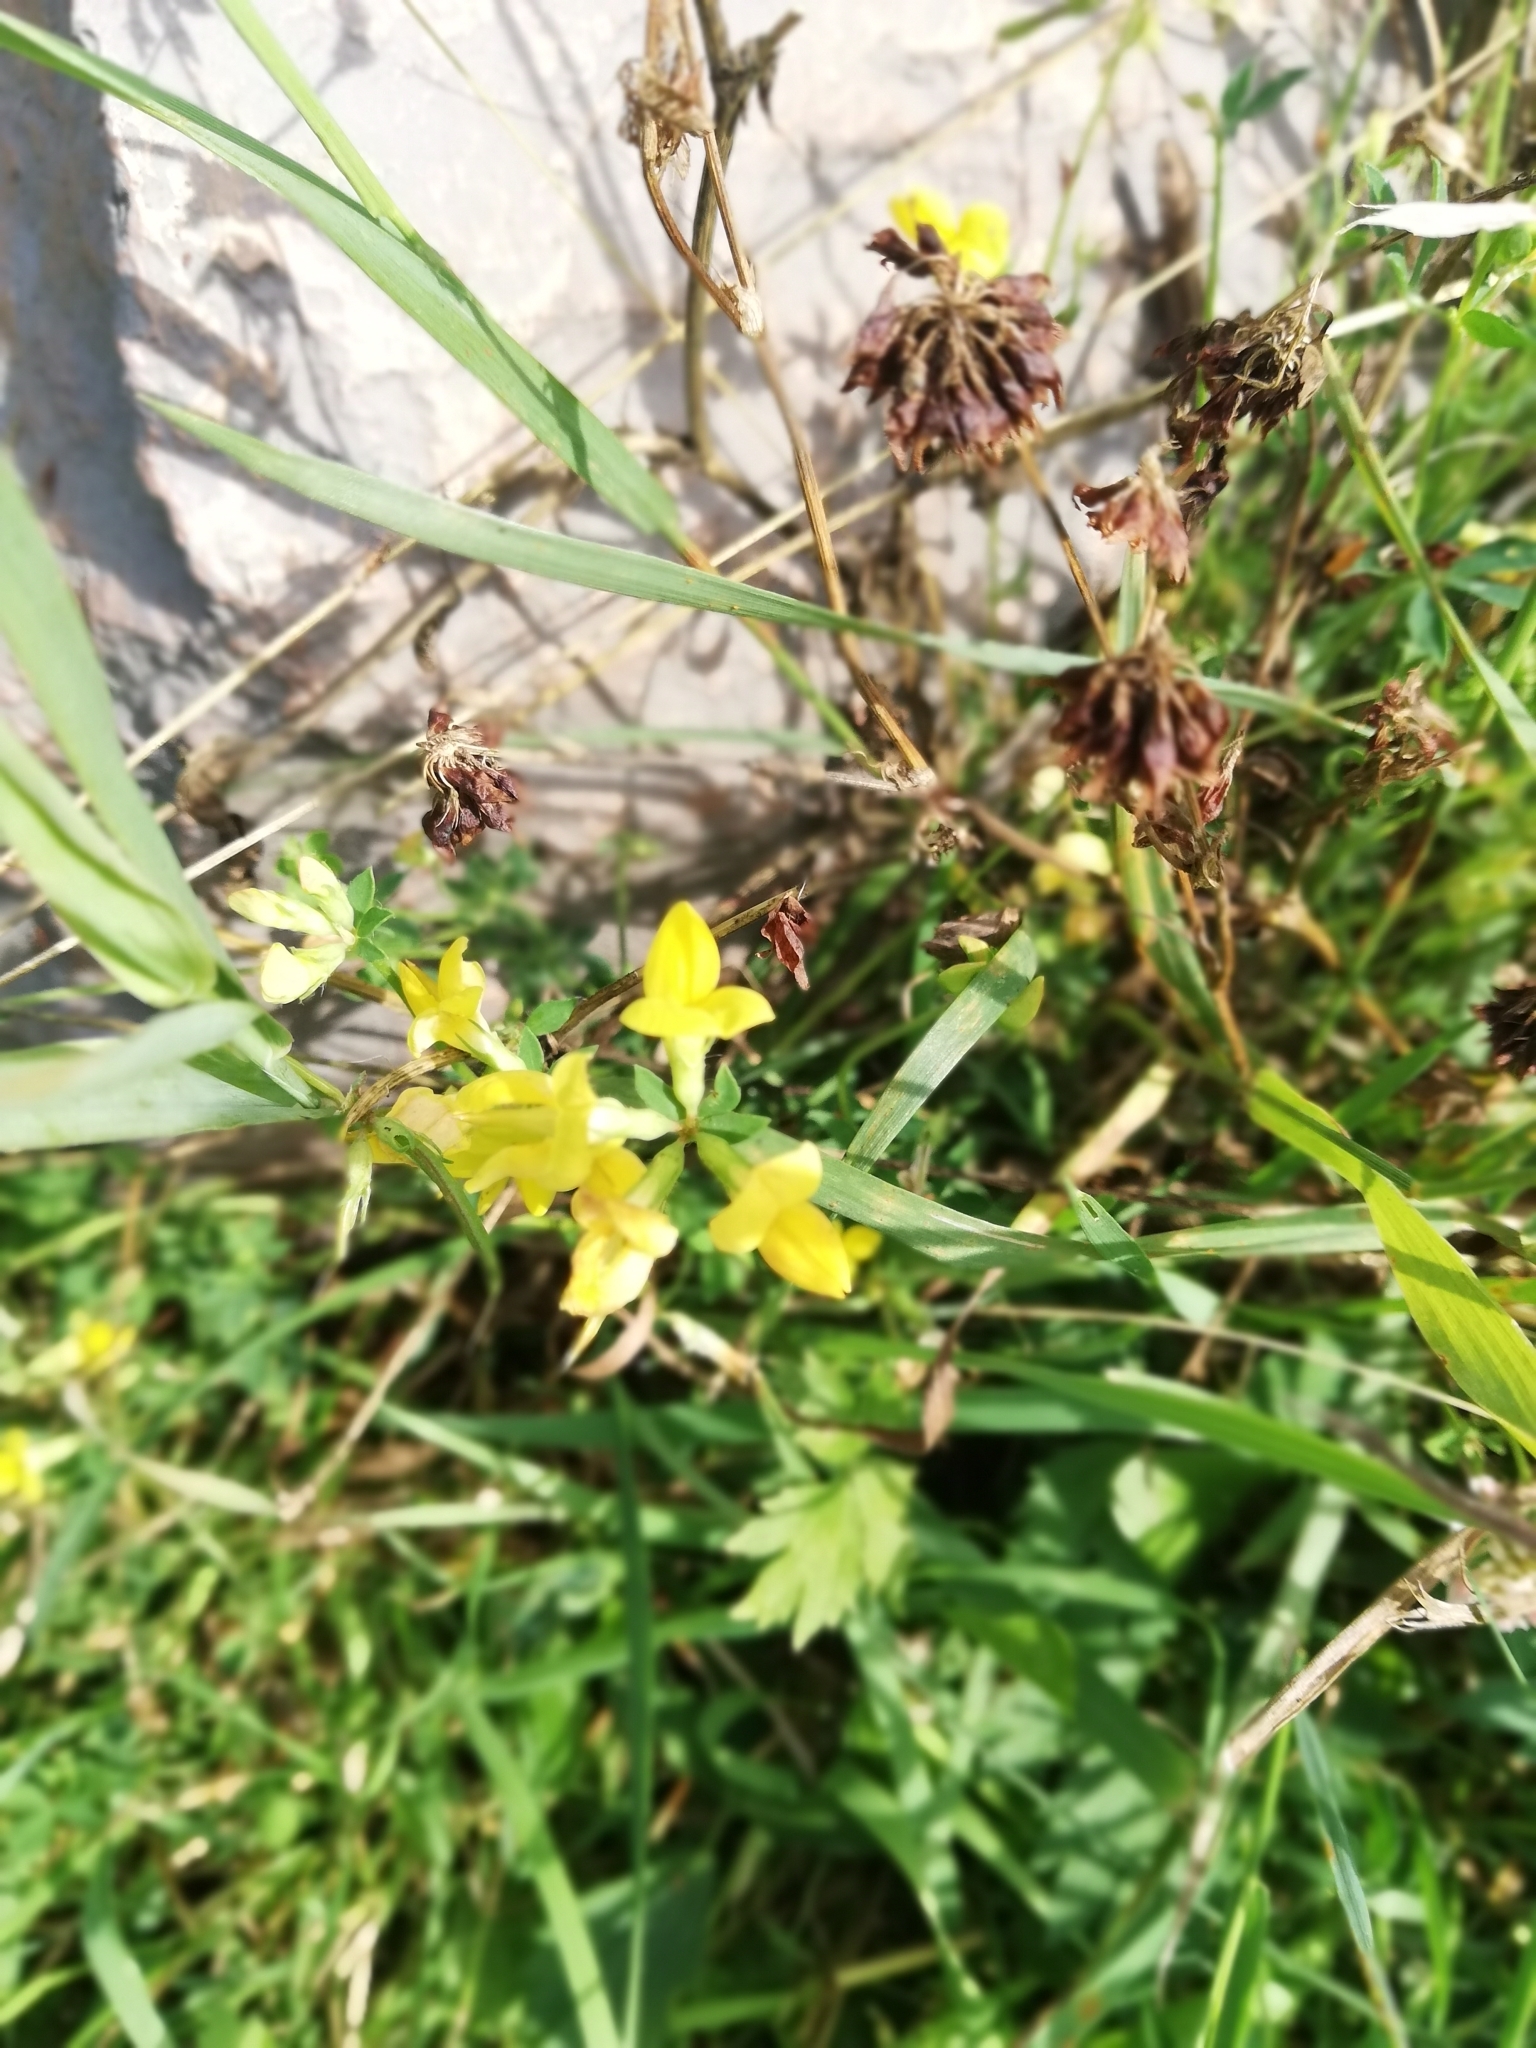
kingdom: Plantae
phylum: Tracheophyta
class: Magnoliopsida
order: Fabales
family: Fabaceae
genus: Lotus
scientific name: Lotus corniculatus
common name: Common bird's-foot-trefoil
